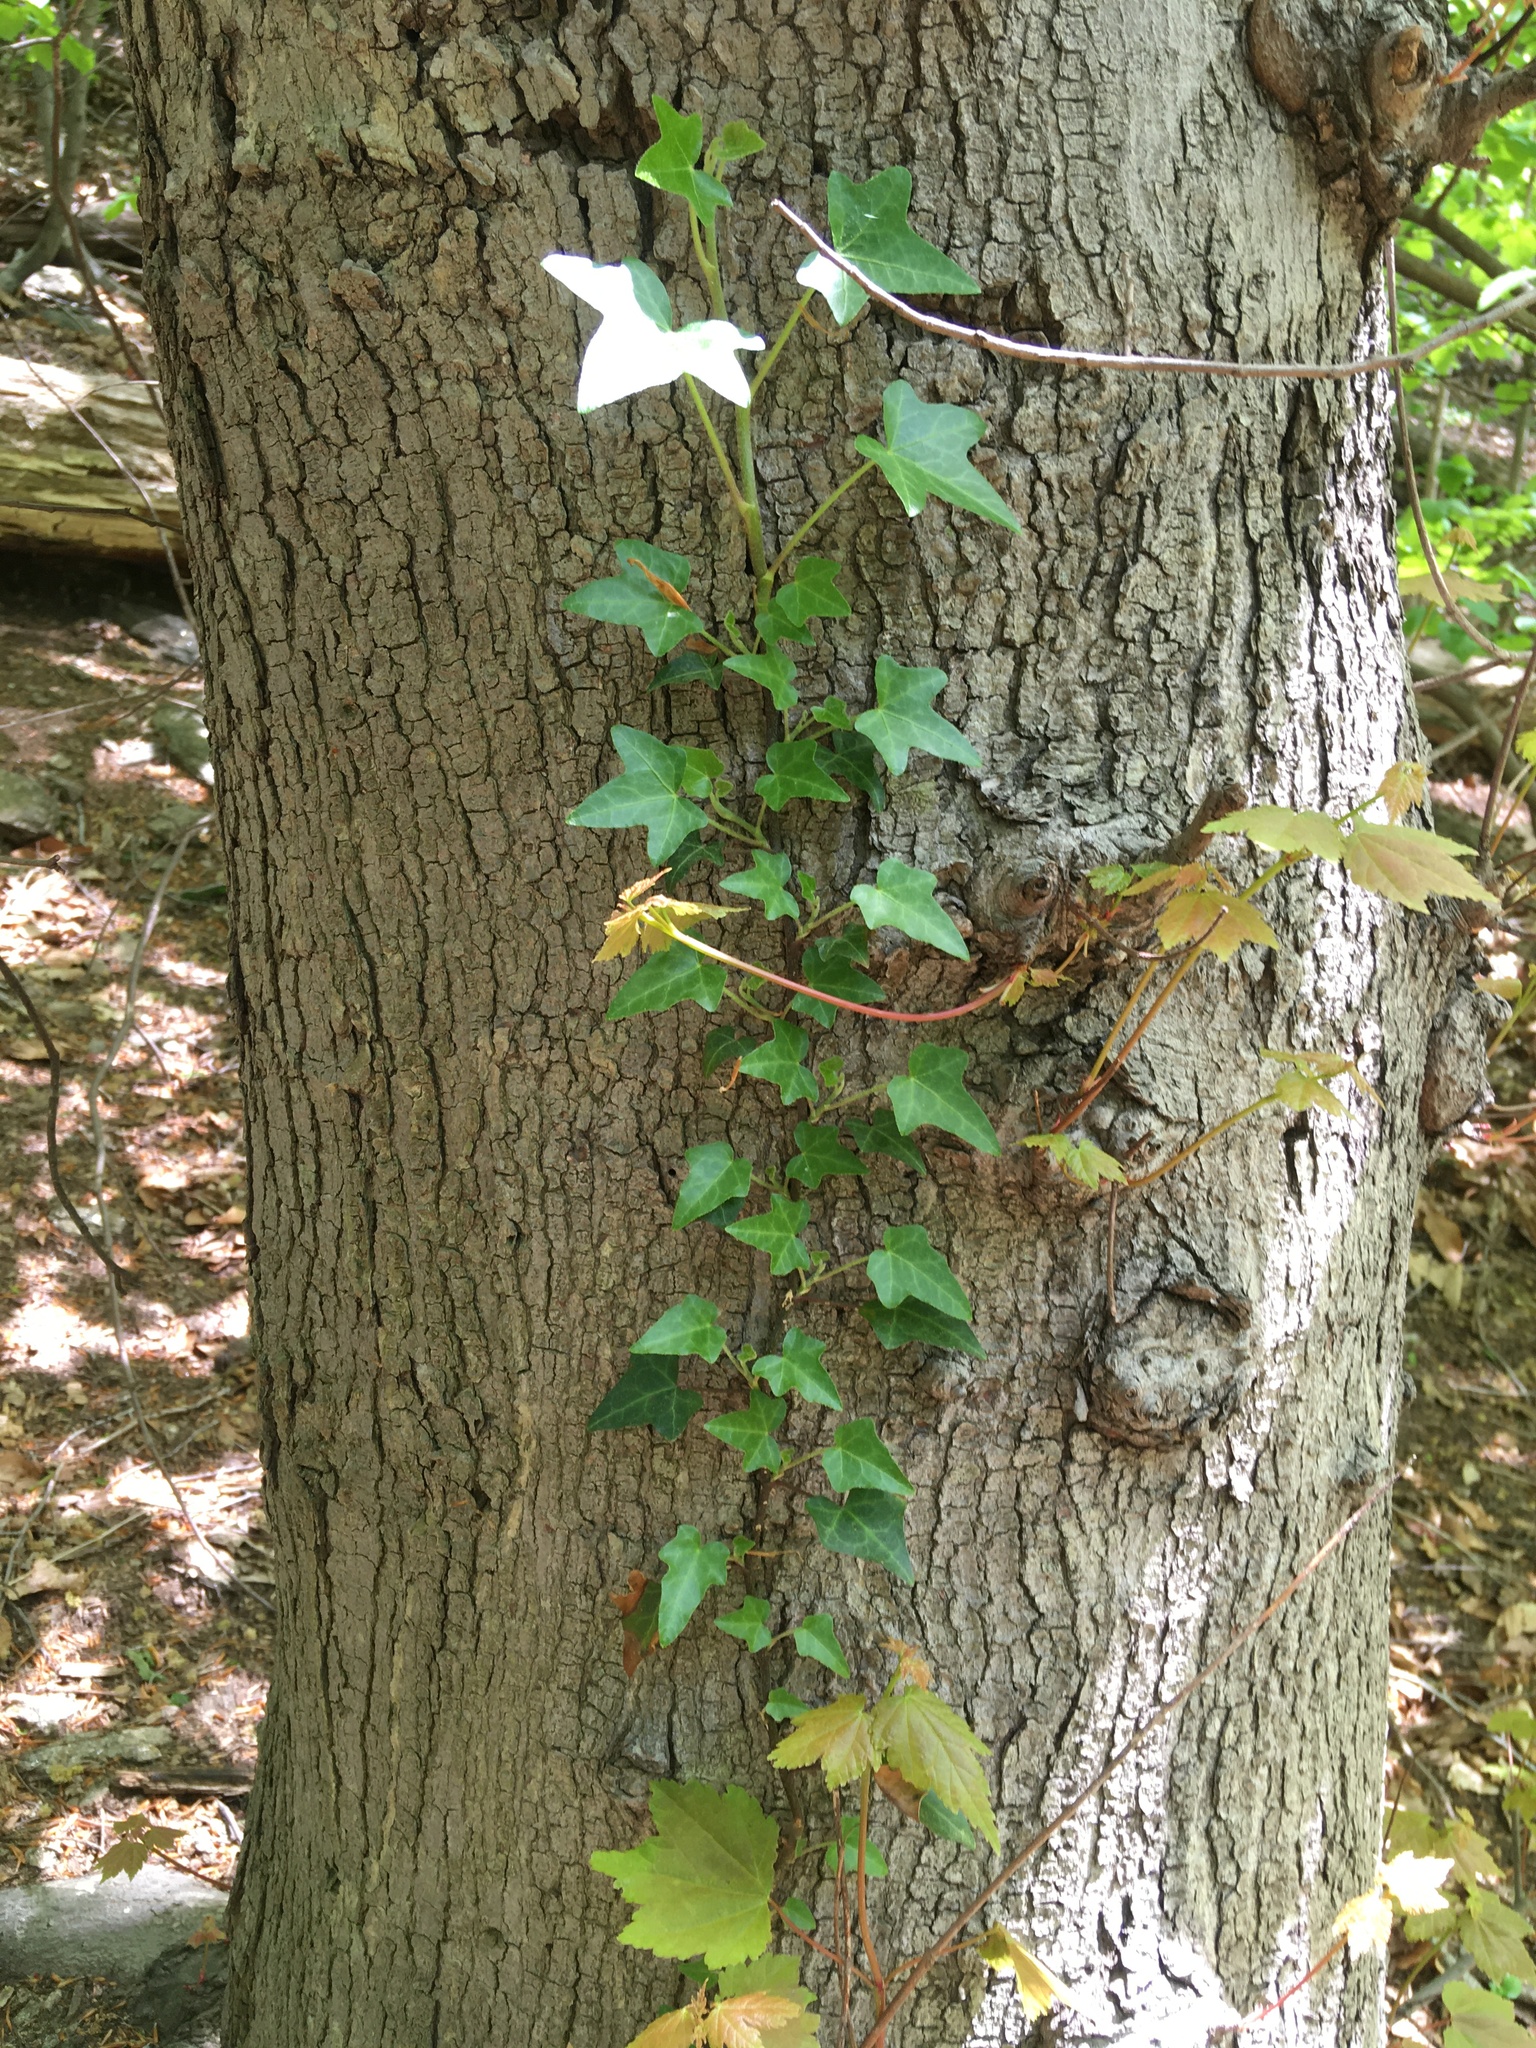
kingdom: Plantae
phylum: Tracheophyta
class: Magnoliopsida
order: Apiales
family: Araliaceae
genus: Hedera
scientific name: Hedera helix
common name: Ivy
